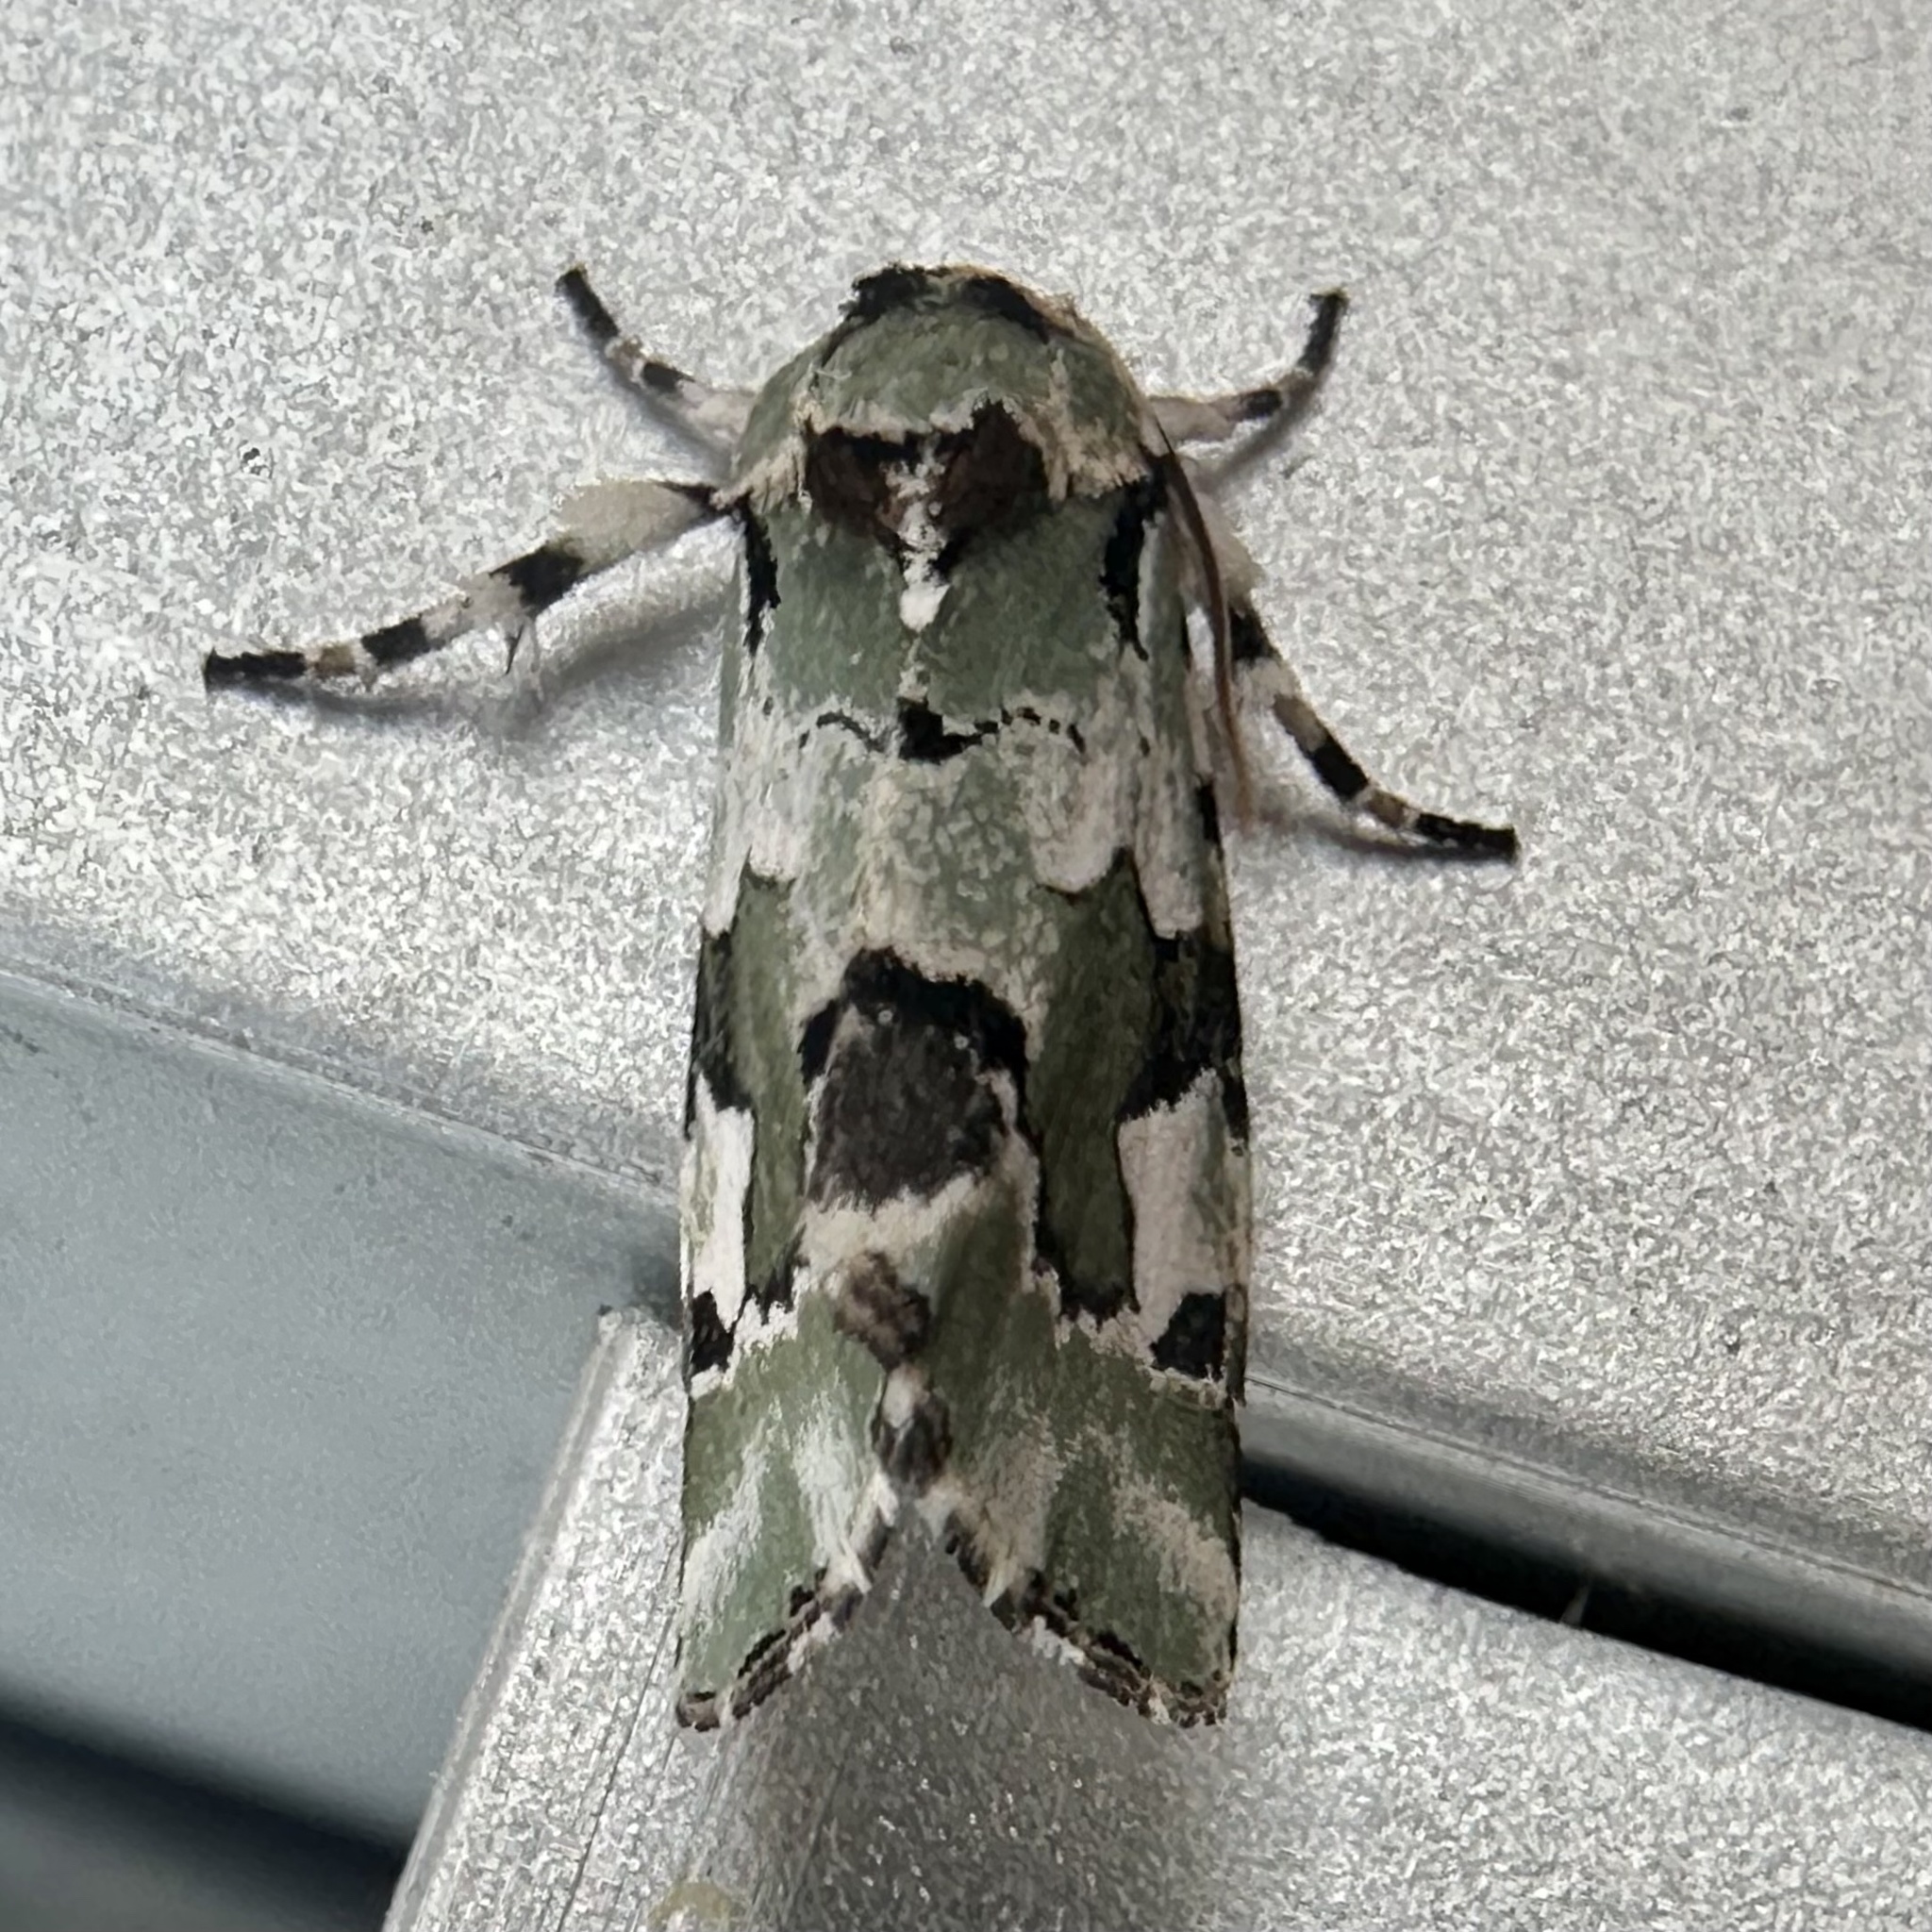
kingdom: Animalia
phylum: Arthropoda
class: Insecta
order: Lepidoptera
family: Noctuidae
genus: Emarginea
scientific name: Emarginea percara
